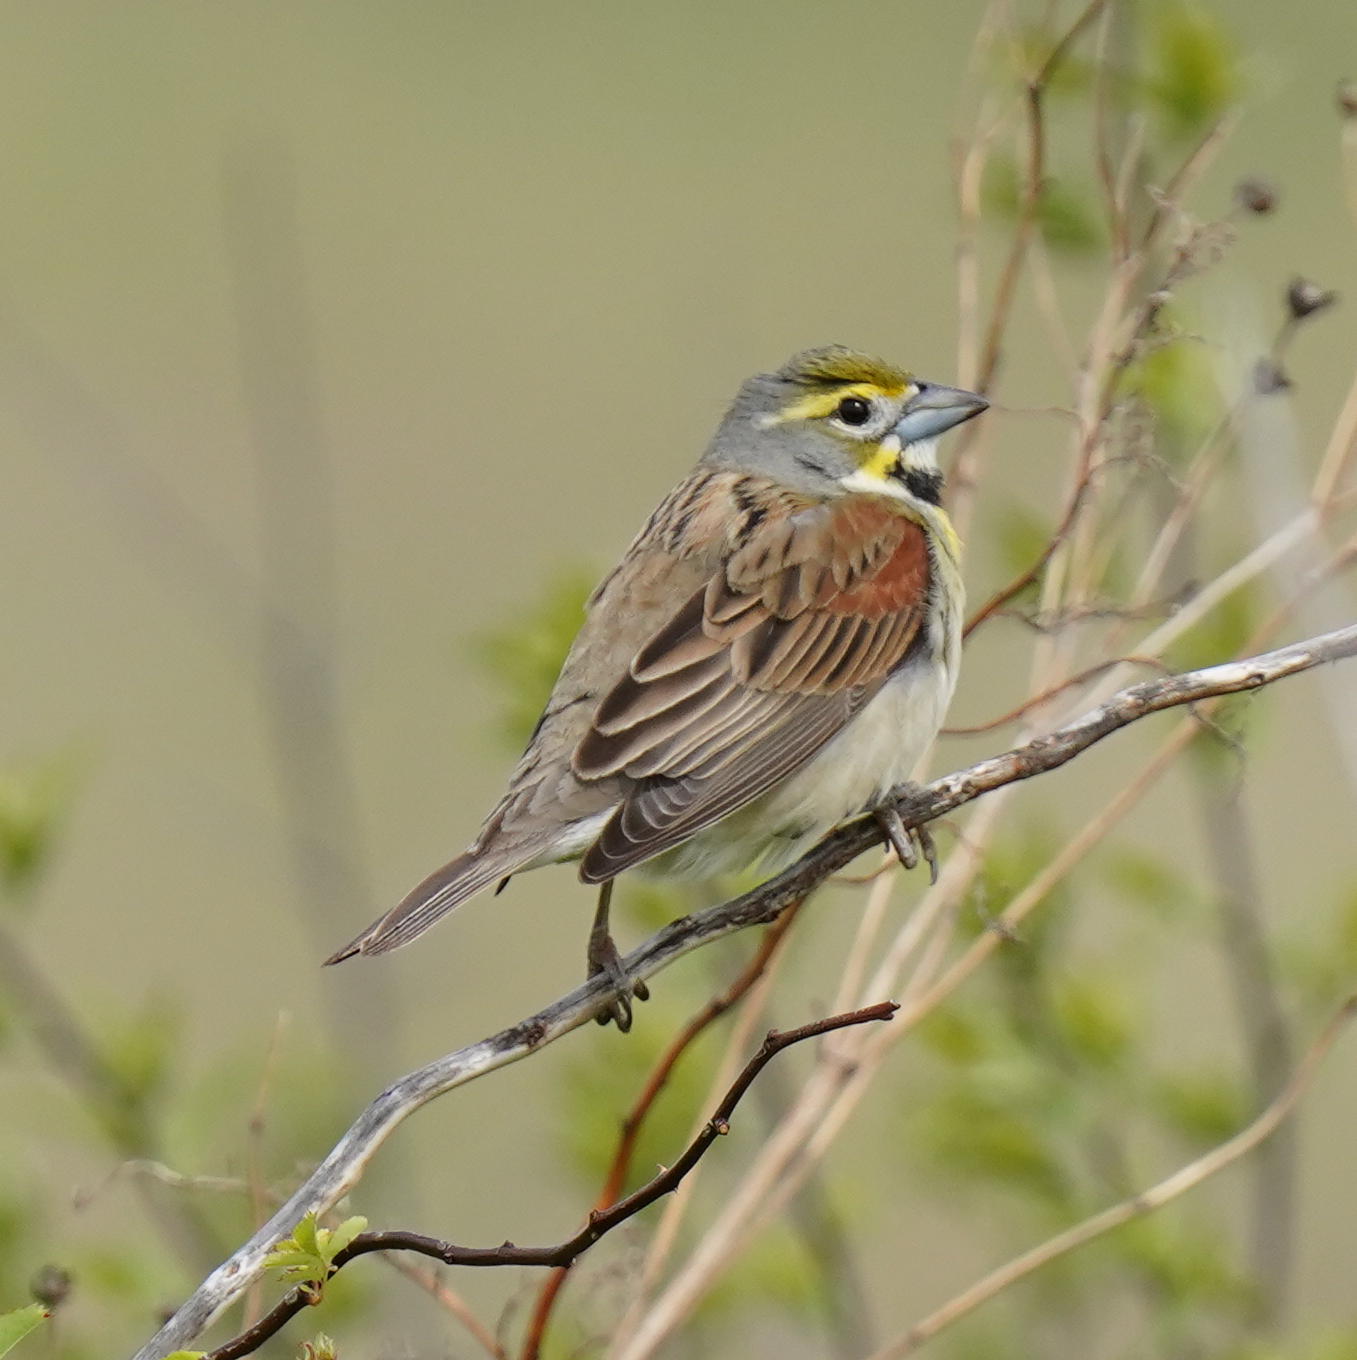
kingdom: Animalia
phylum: Chordata
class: Aves
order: Passeriformes
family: Cardinalidae
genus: Spiza
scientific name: Spiza americana
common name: Dickcissel
